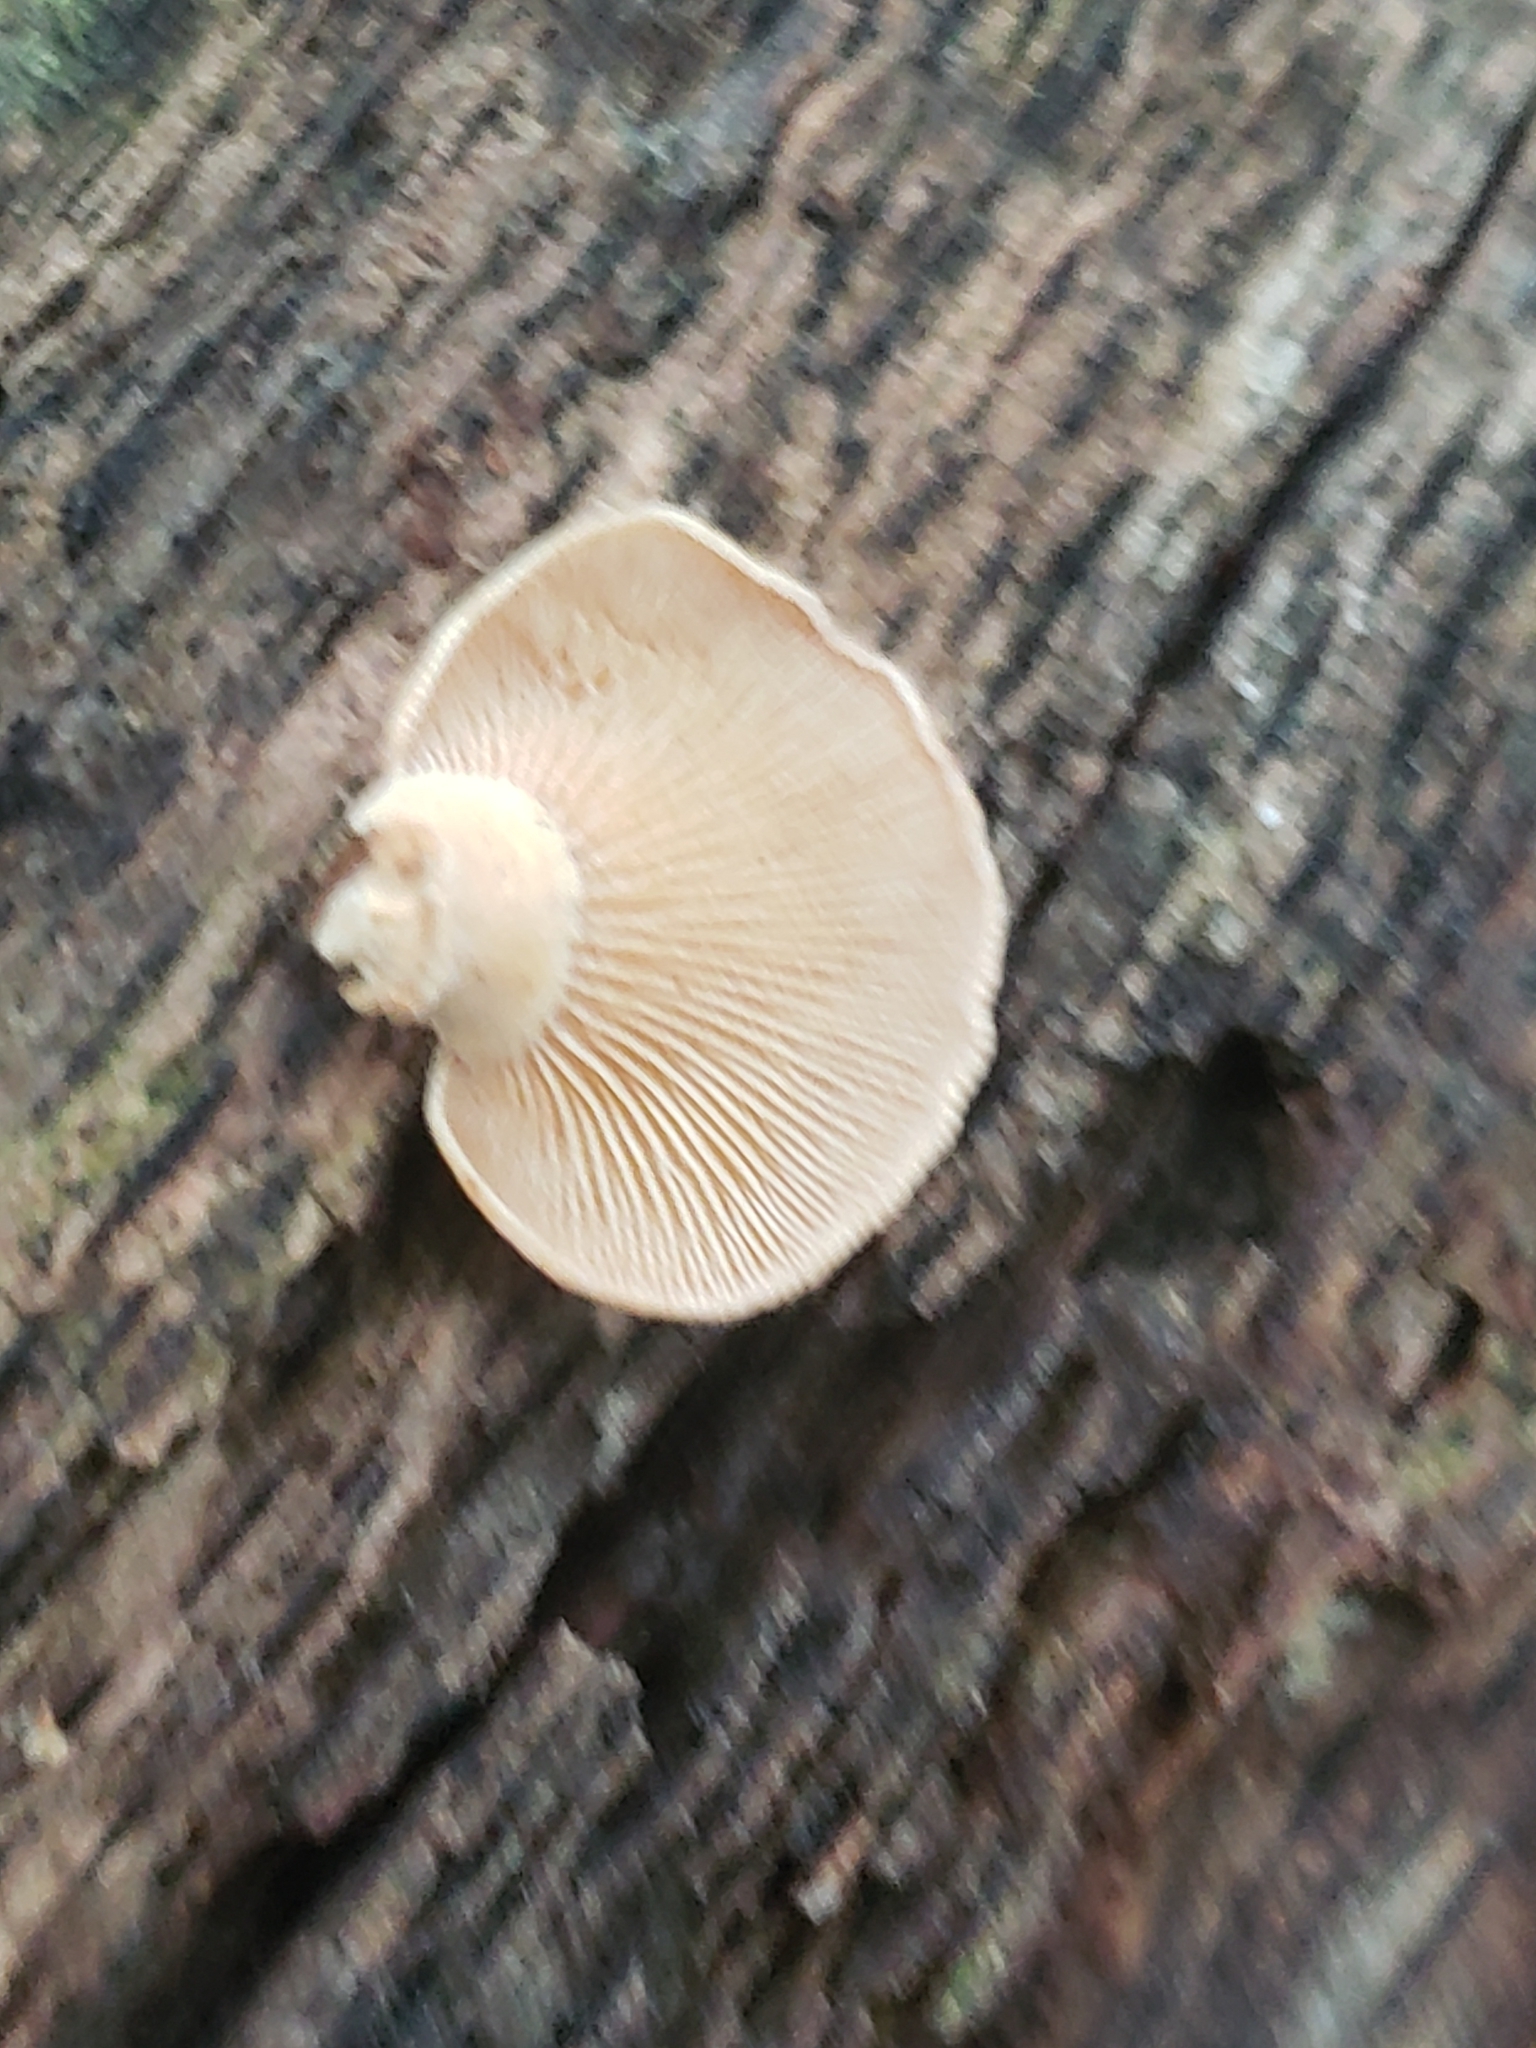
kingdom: Fungi
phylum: Basidiomycota
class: Agaricomycetes
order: Agaricales
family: Mycenaceae
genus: Panellus
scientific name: Panellus stipticus
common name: Bitter oysterling
